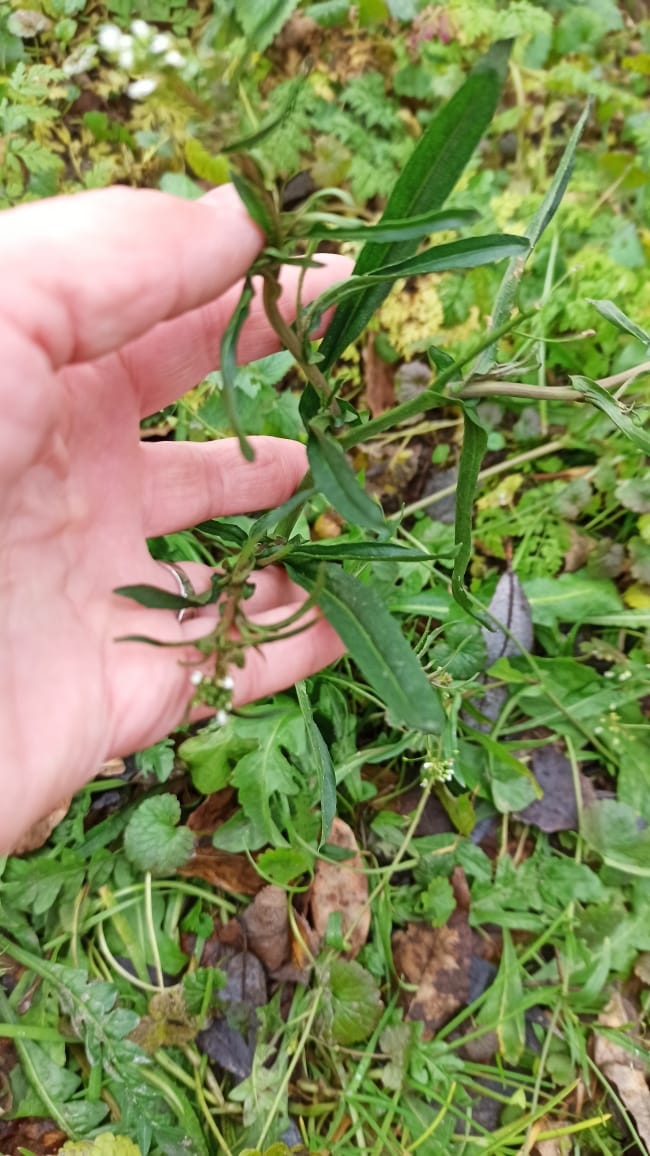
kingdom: Plantae
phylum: Tracheophyta
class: Magnoliopsida
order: Brassicales
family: Brassicaceae
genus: Capsella
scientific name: Capsella bursa-pastoris
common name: Shepherd's purse
